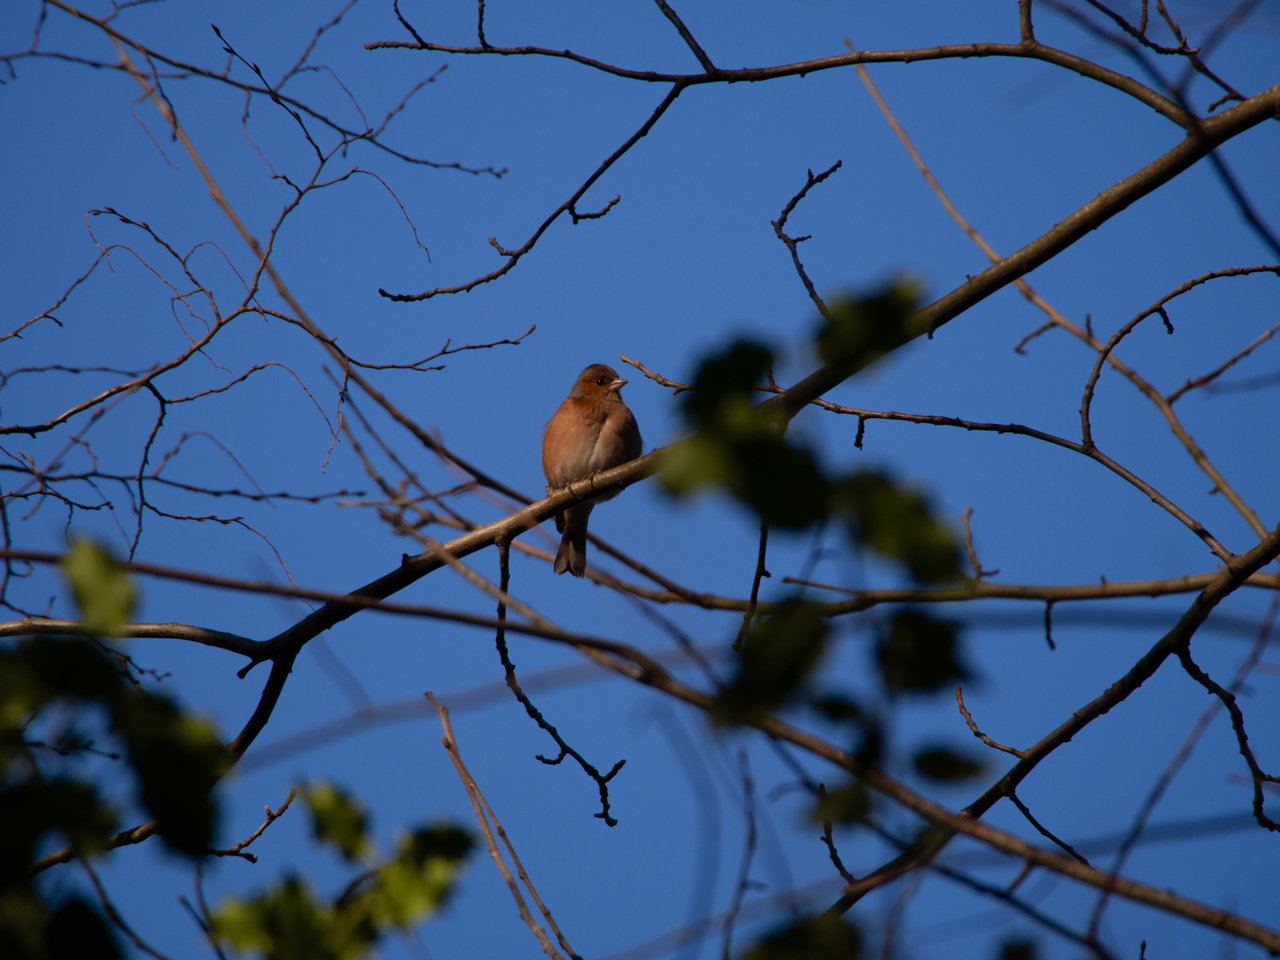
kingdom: Animalia
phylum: Chordata
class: Aves
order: Passeriformes
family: Fringillidae
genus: Fringilla
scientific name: Fringilla coelebs
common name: Common chaffinch
